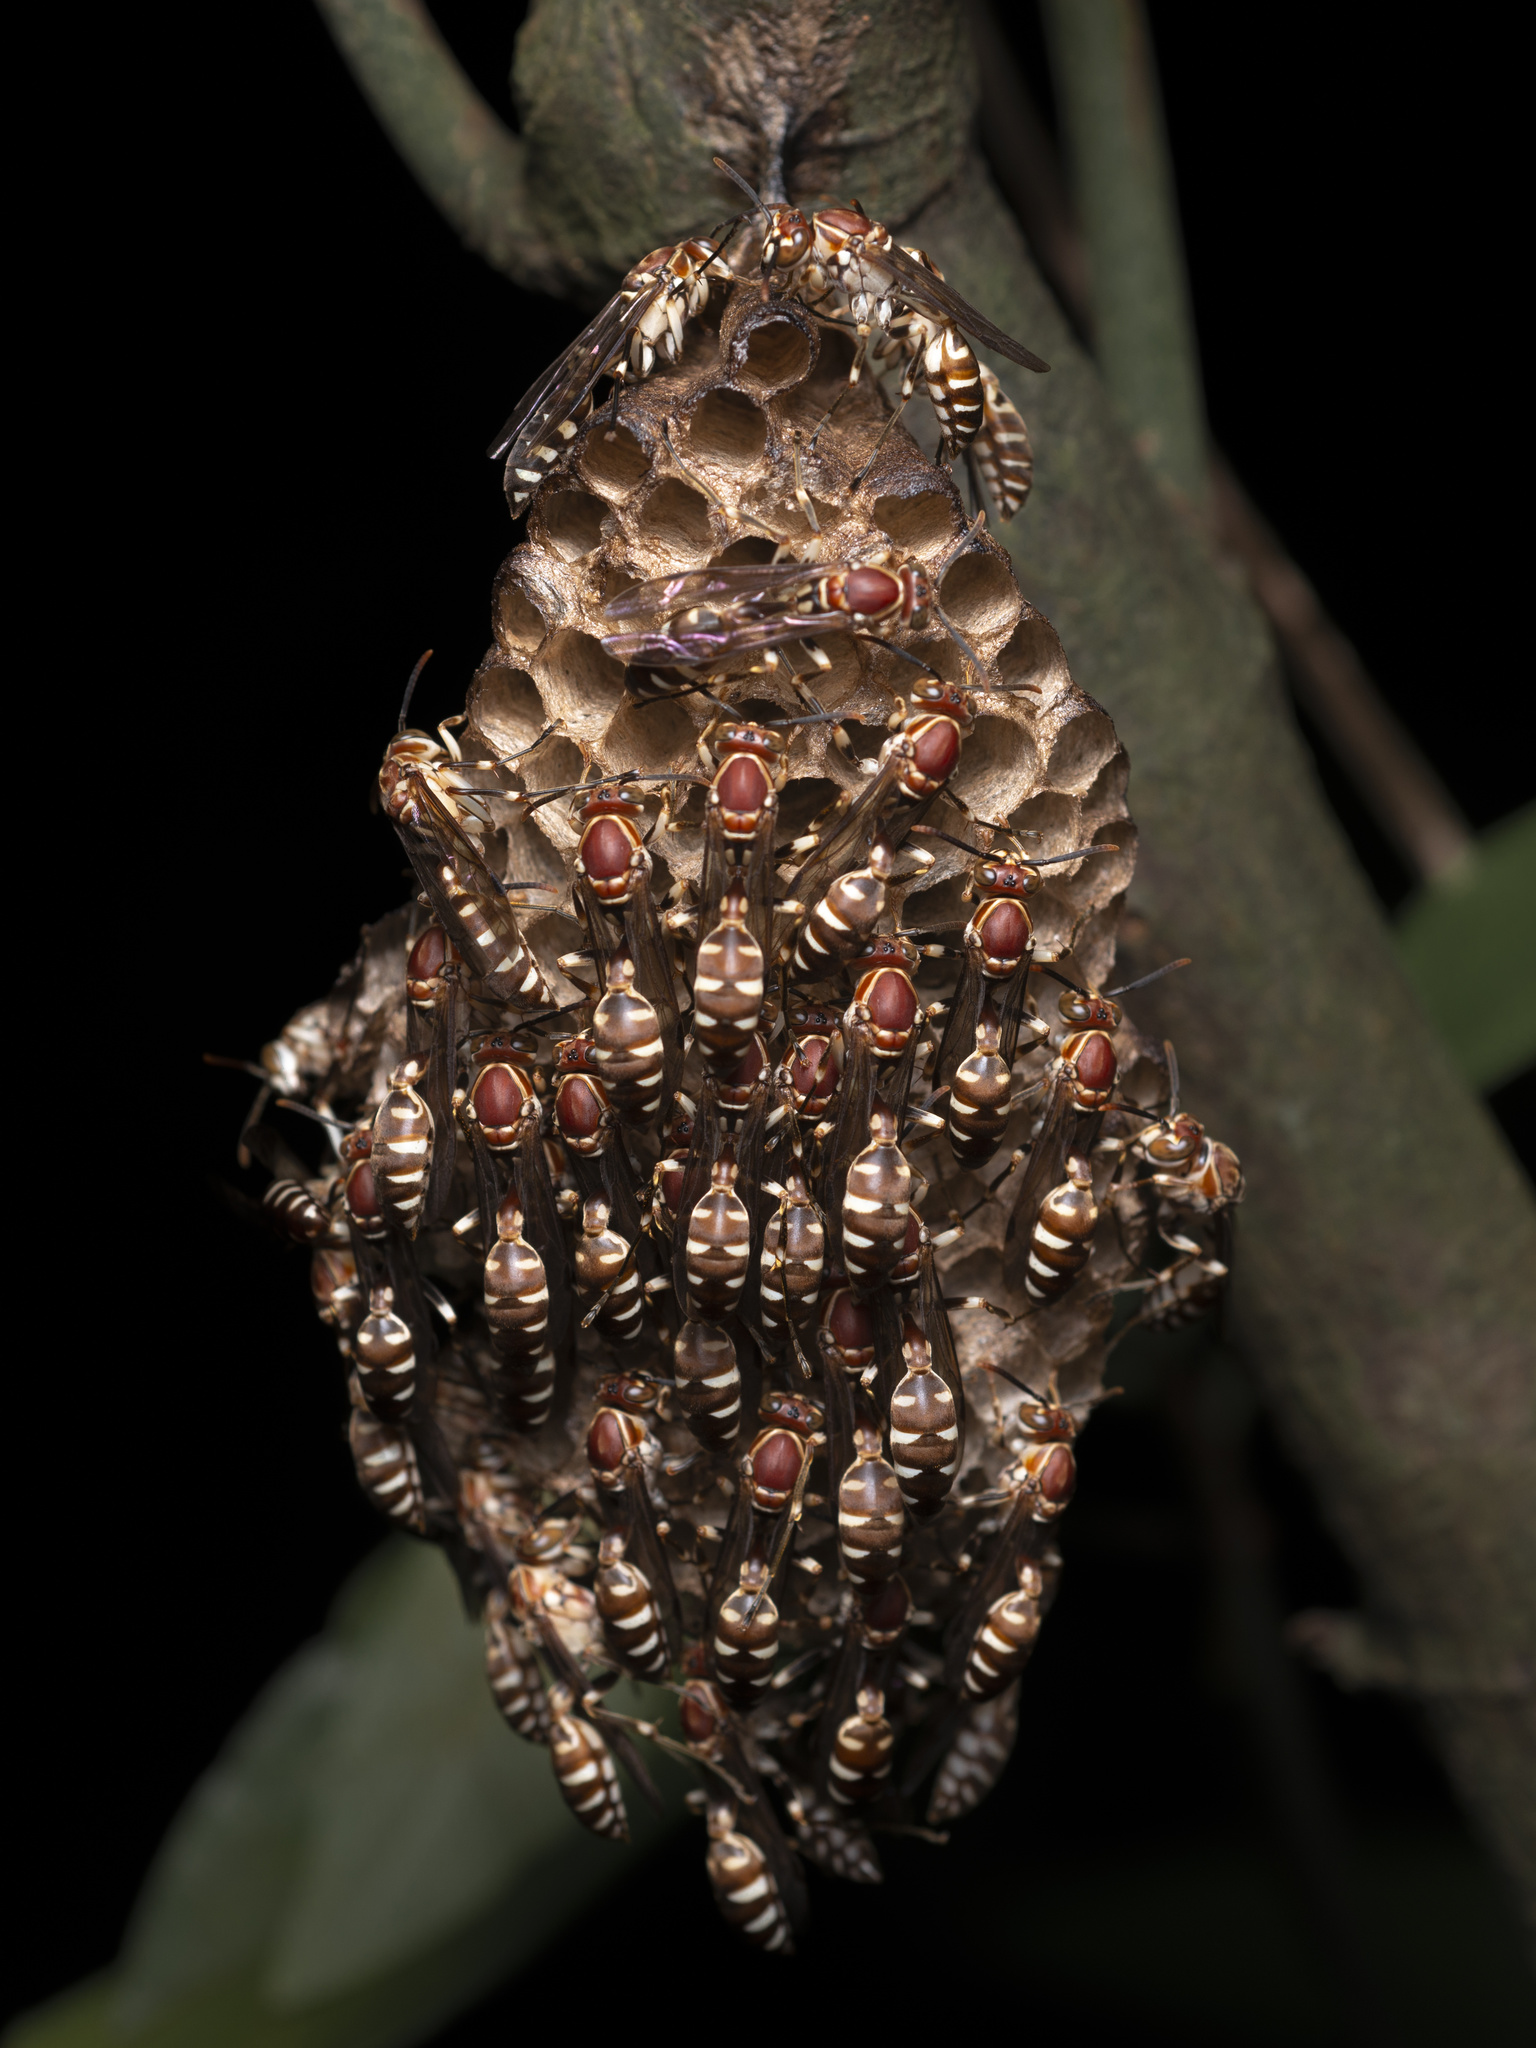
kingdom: Animalia
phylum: Arthropoda
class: Insecta
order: Hymenoptera
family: Vespidae
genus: Parapolybia
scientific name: Parapolybia nodosa
